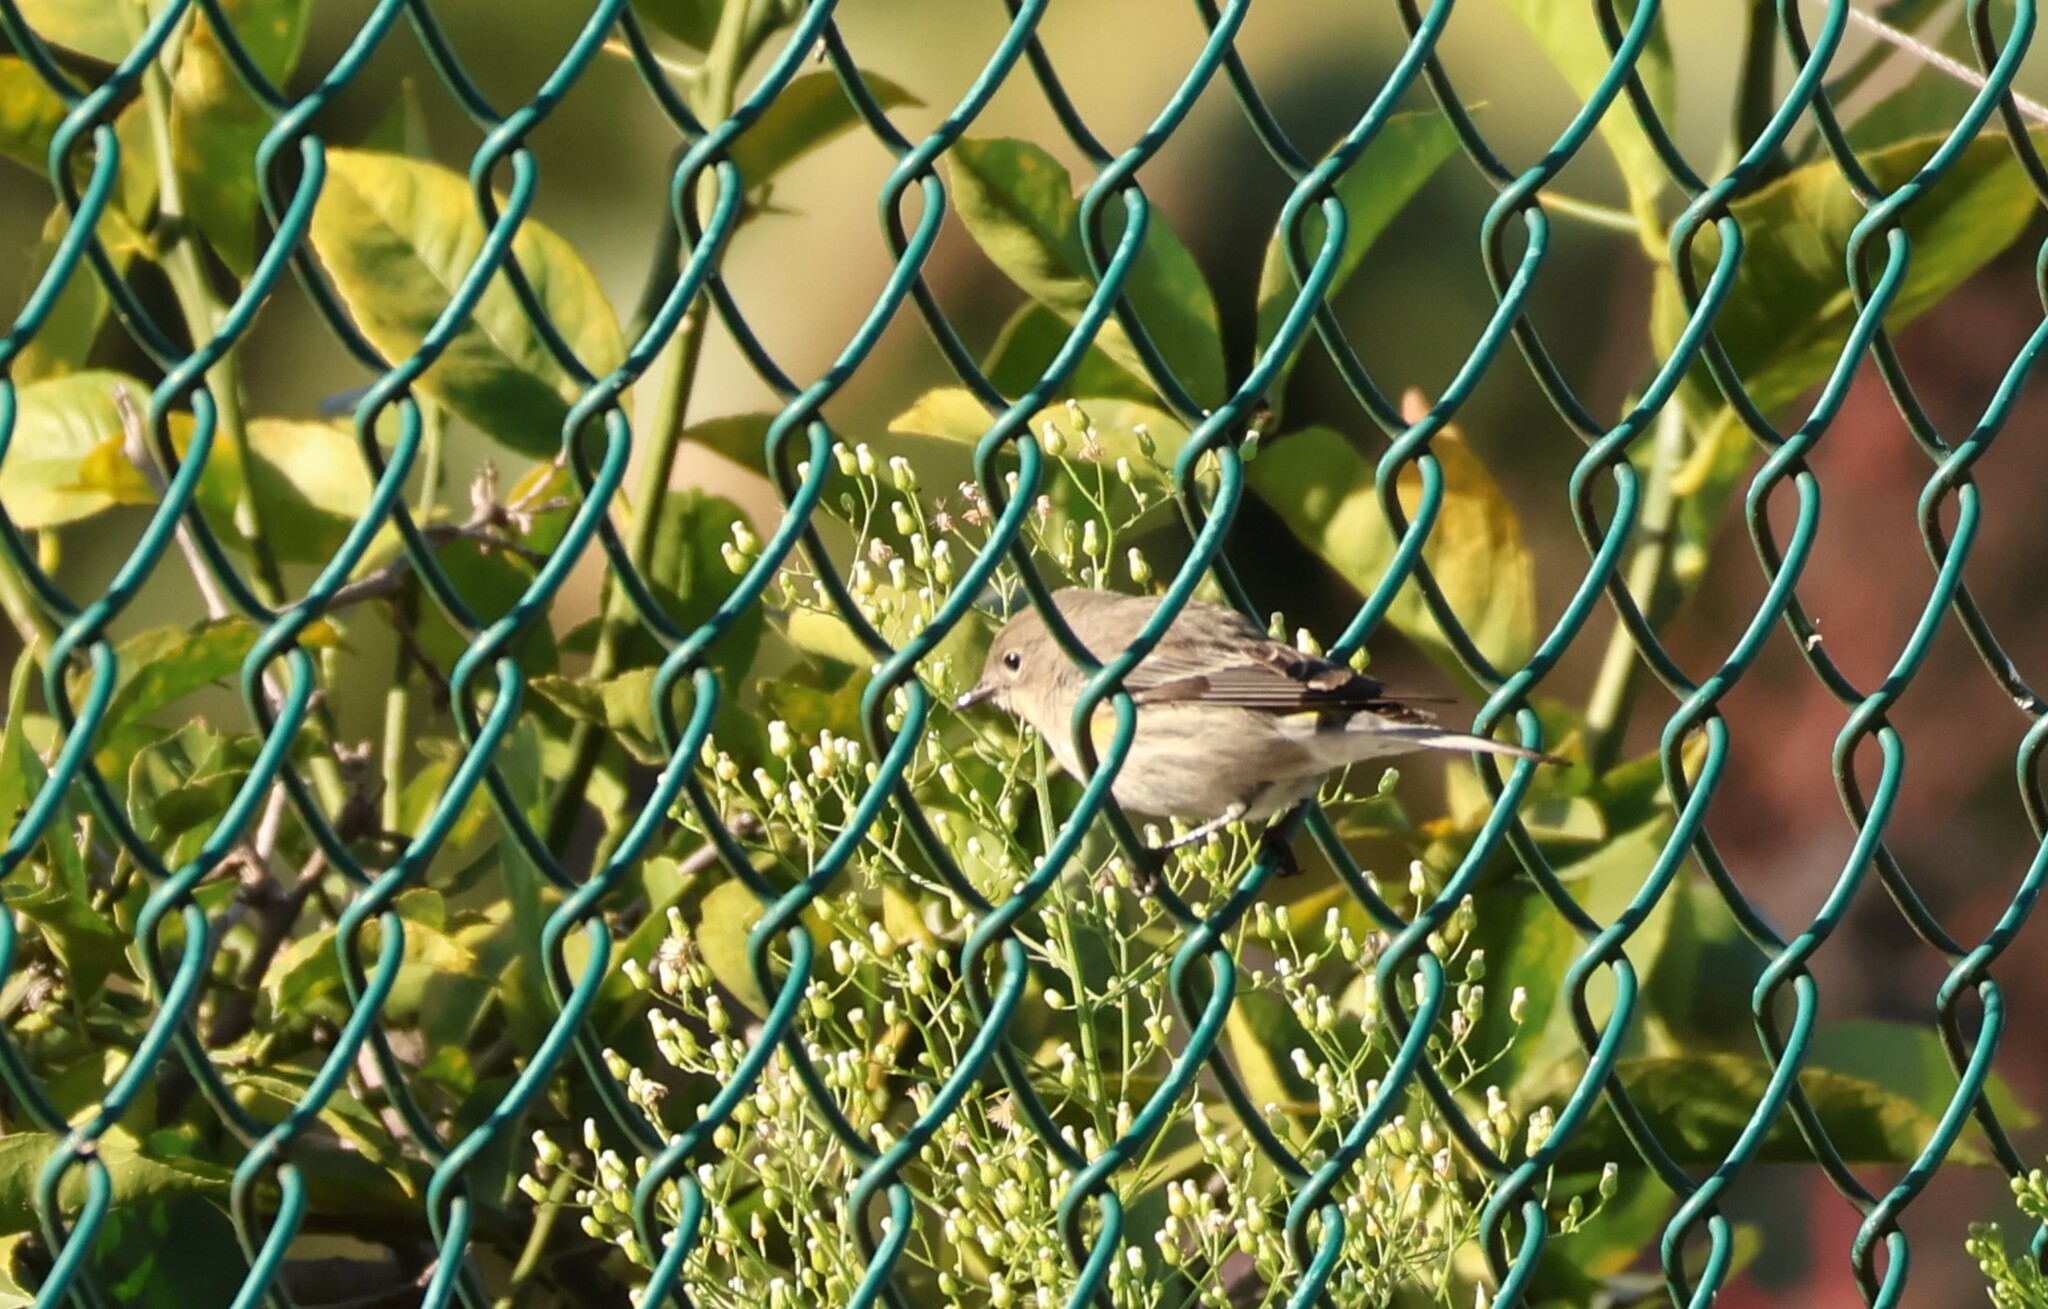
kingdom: Animalia
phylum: Chordata
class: Aves
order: Passeriformes
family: Parulidae
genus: Setophaga
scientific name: Setophaga coronata
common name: Myrtle warbler
